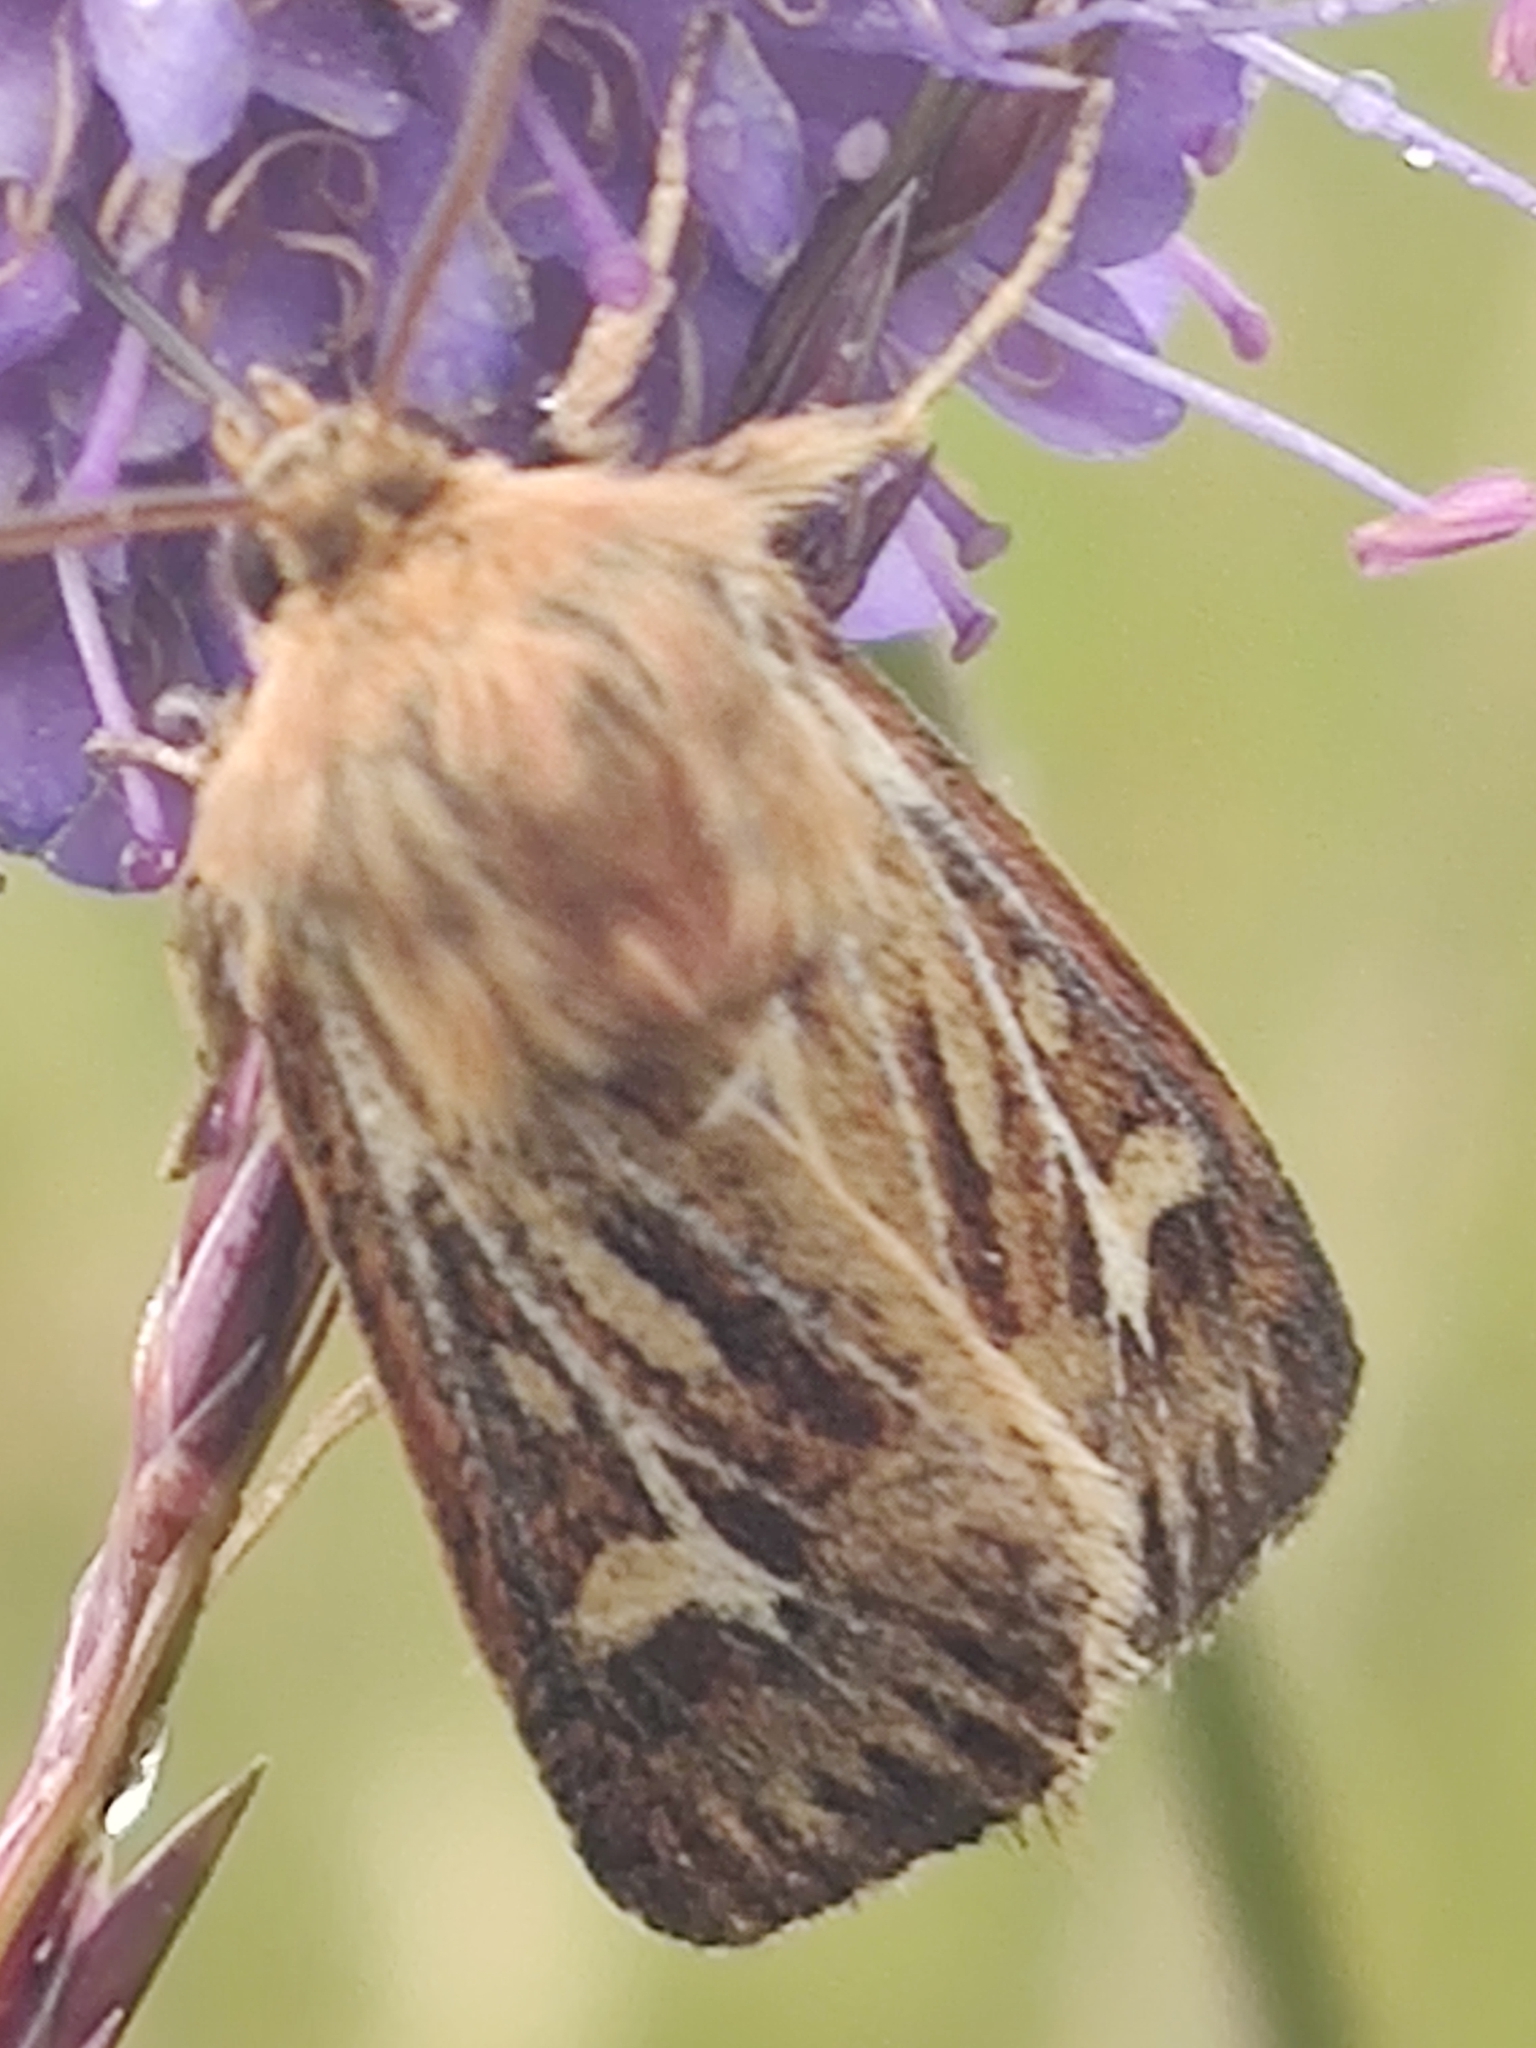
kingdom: Animalia
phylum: Arthropoda
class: Insecta
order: Lepidoptera
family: Noctuidae
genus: Cerapteryx
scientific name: Cerapteryx graminis
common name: Antler moth
